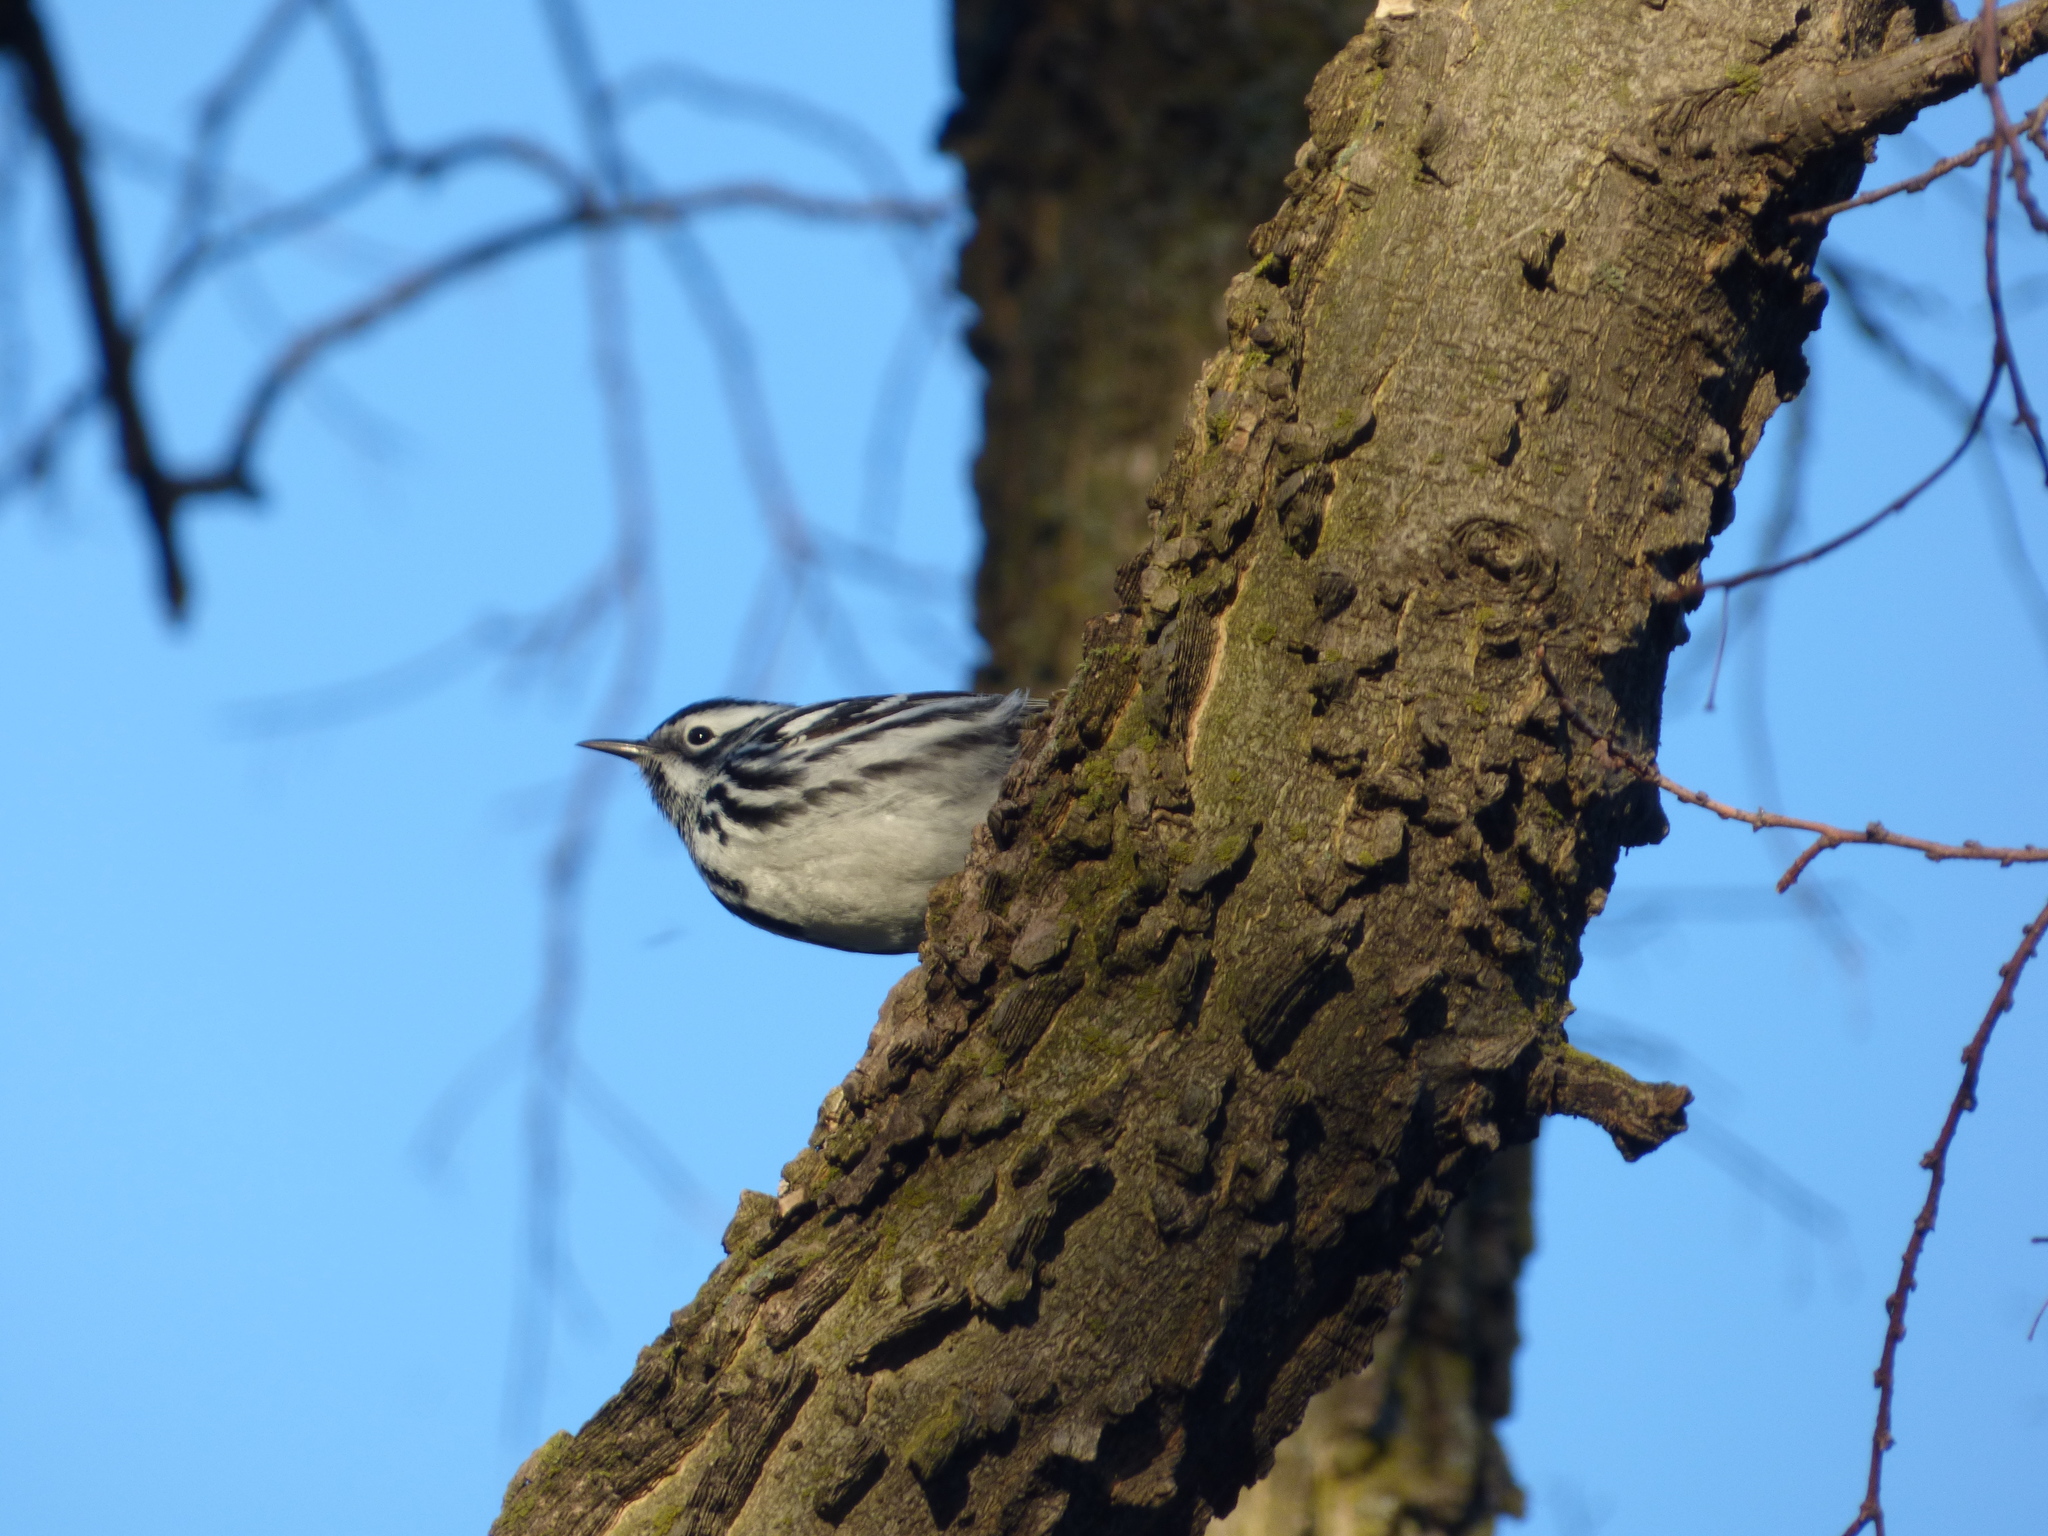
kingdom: Animalia
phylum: Chordata
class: Aves
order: Passeriformes
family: Parulidae
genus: Mniotilta
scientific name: Mniotilta varia
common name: Black-and-white warbler
